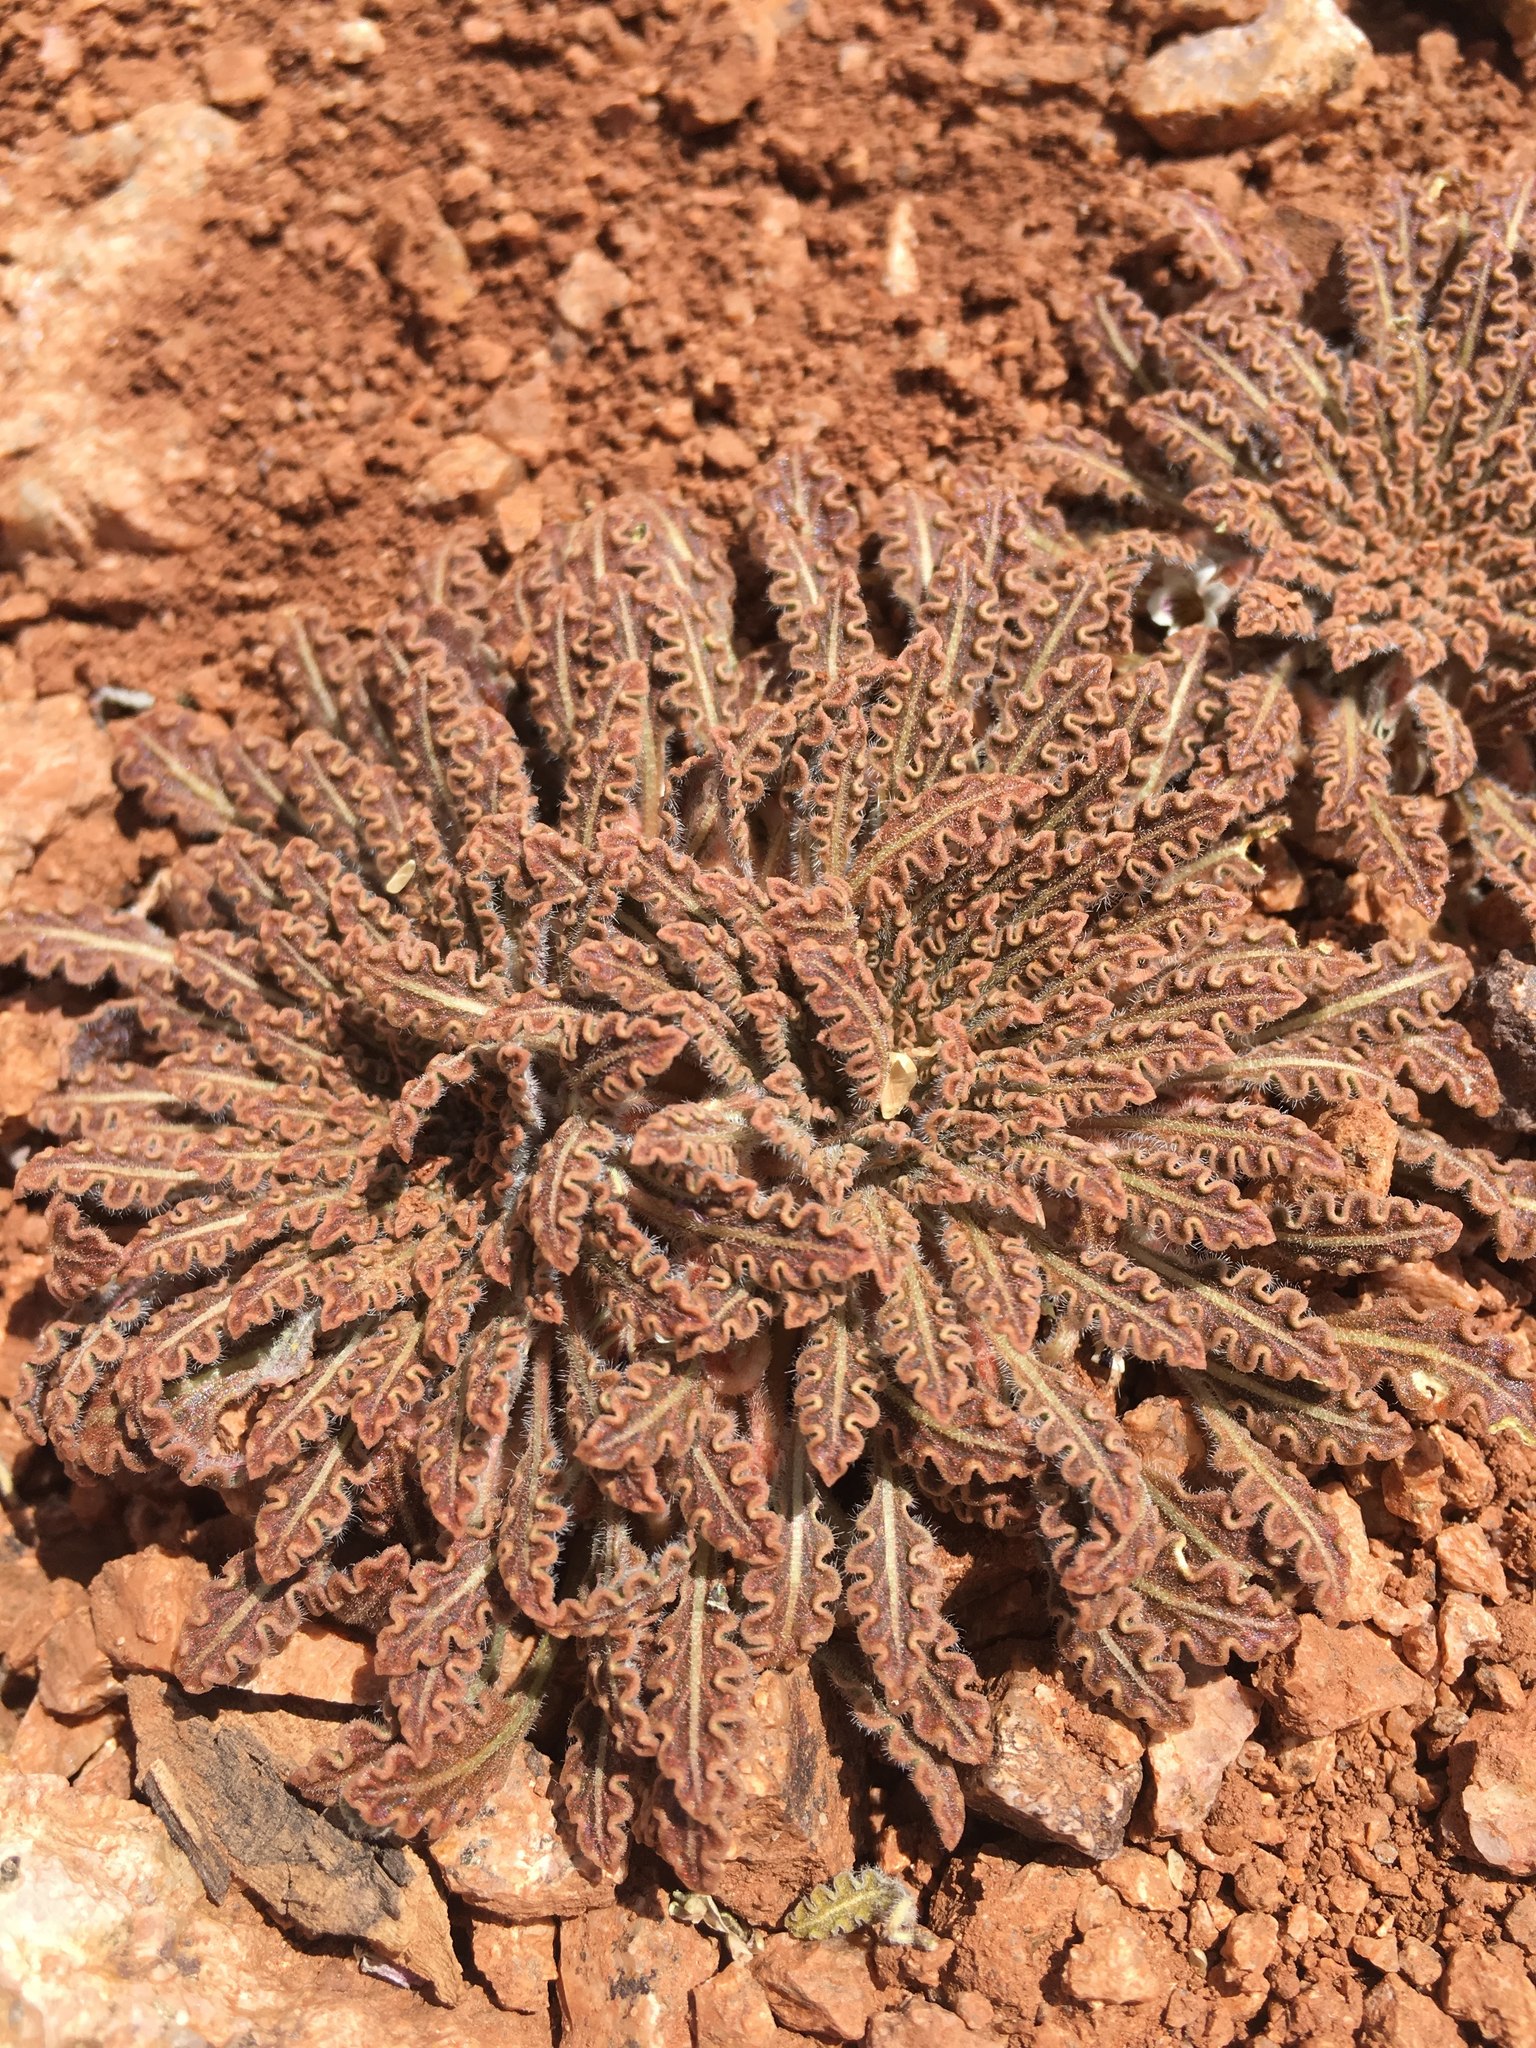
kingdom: Plantae
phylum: Tracheophyta
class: Magnoliopsida
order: Malpighiales
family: Violaceae
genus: Viola
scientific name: Viola frigida
